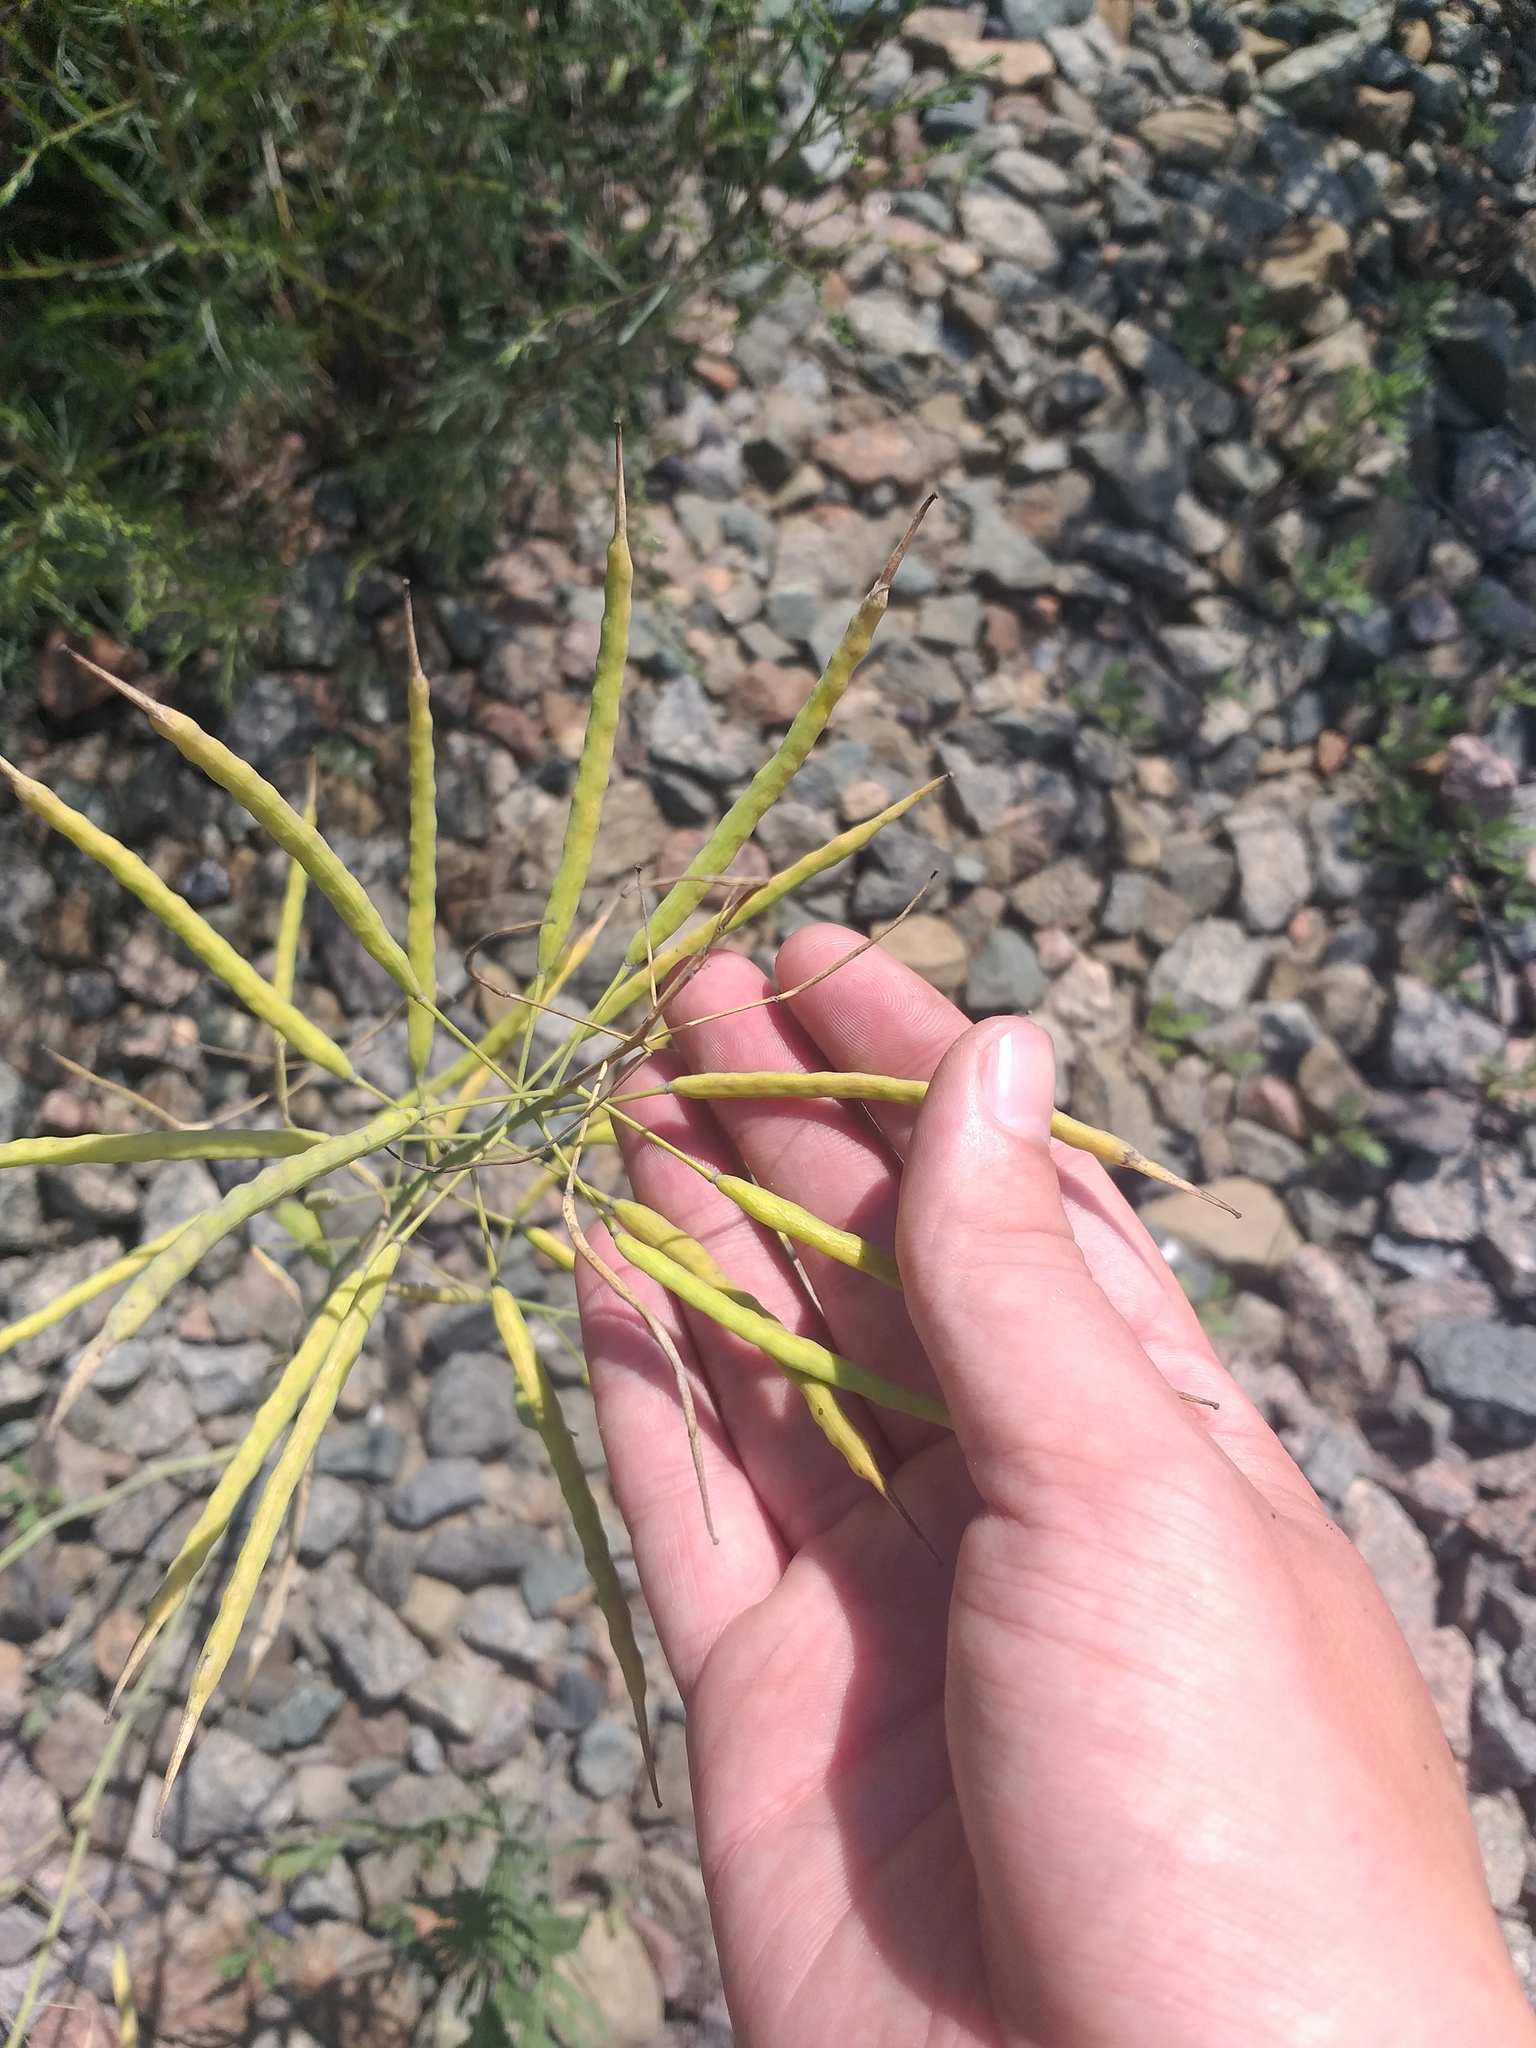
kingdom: Plantae
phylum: Tracheophyta
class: Magnoliopsida
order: Brassicales
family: Brassicaceae
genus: Brassica
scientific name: Brassica napus
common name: Rape
